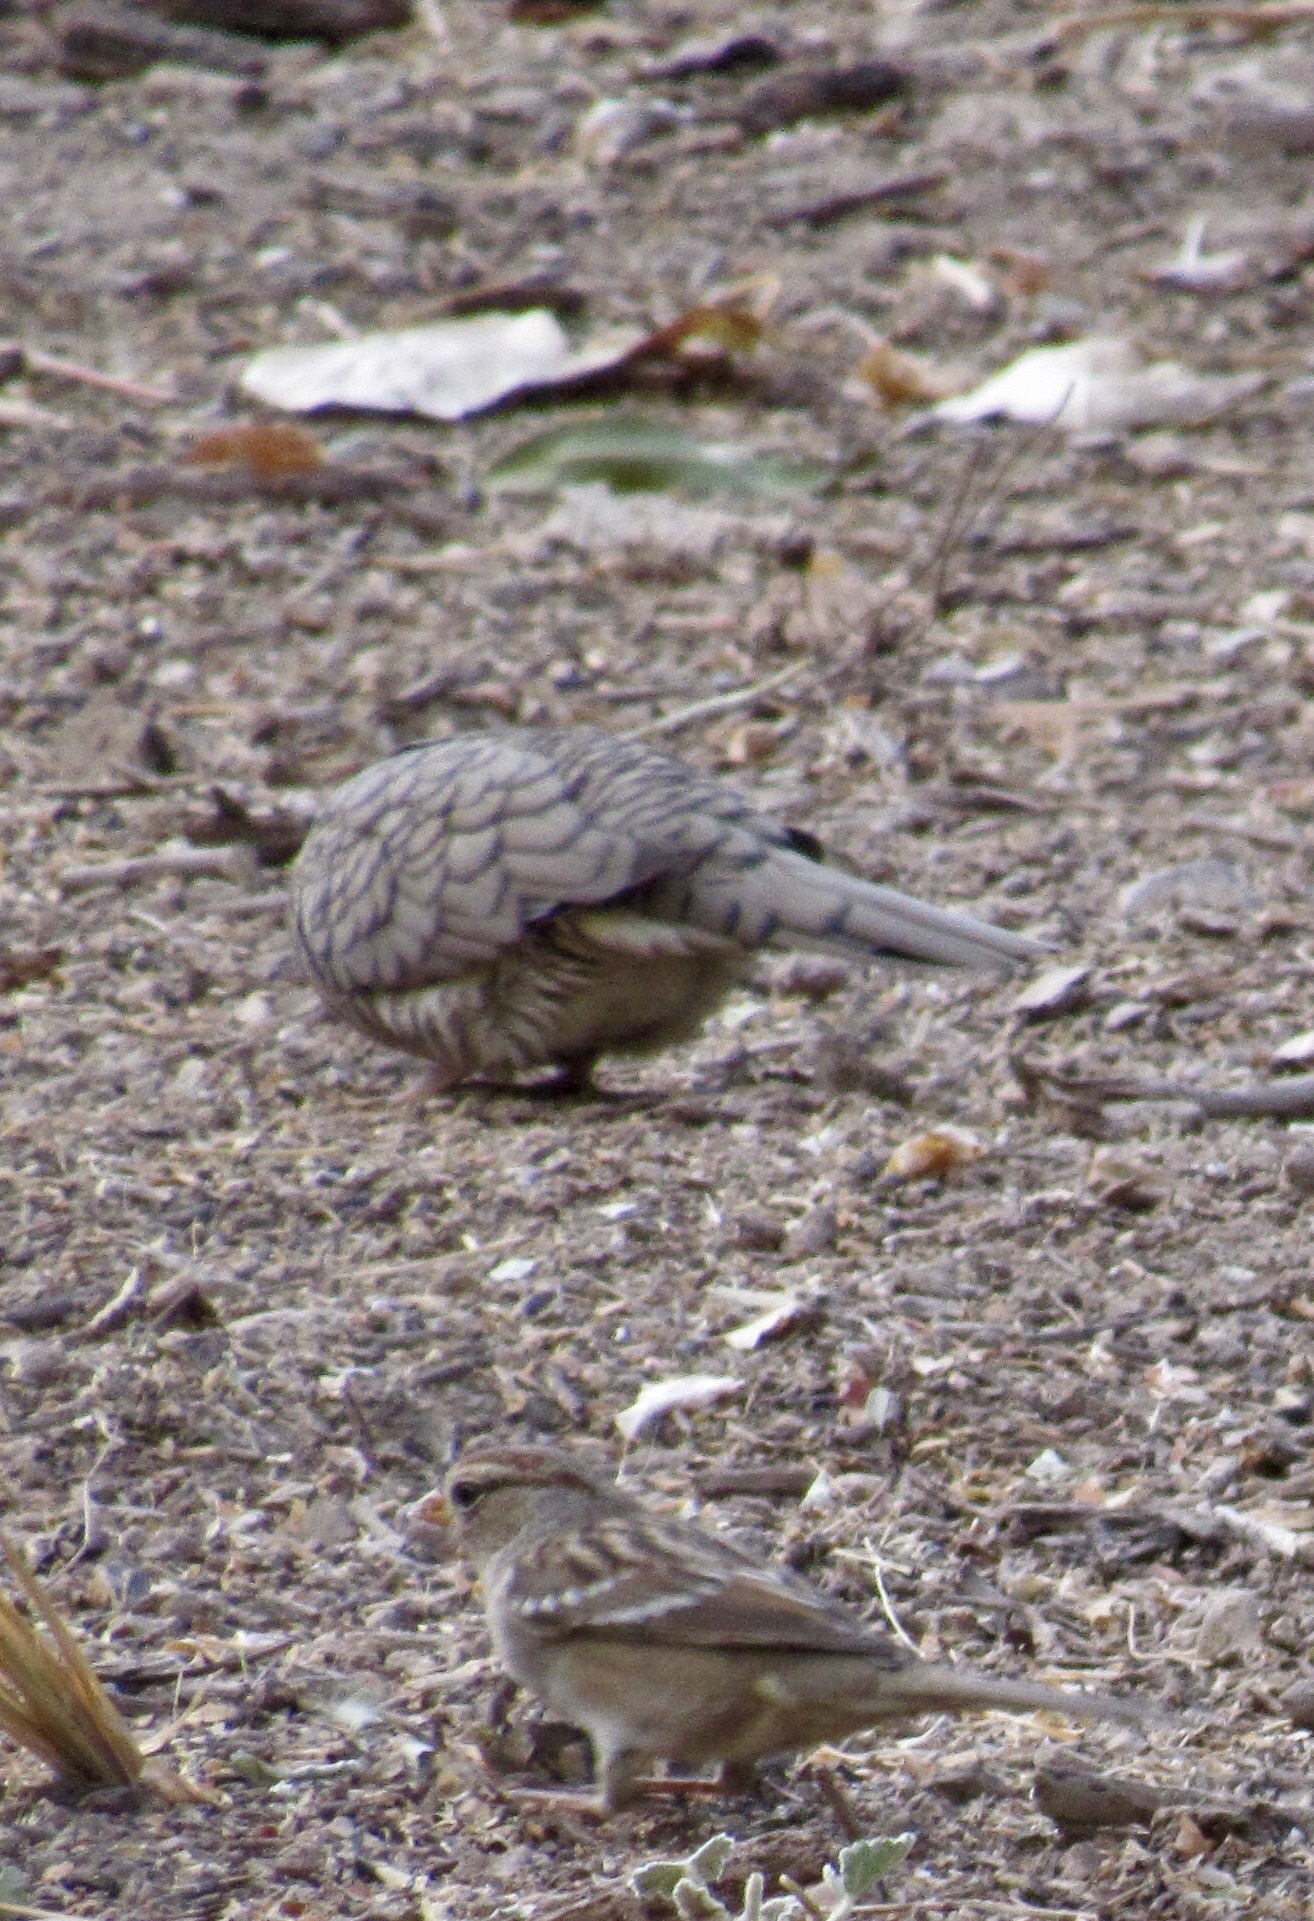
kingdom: Animalia
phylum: Chordata
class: Aves
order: Columbiformes
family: Columbidae
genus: Columbina
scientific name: Columbina inca
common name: Inca dove
